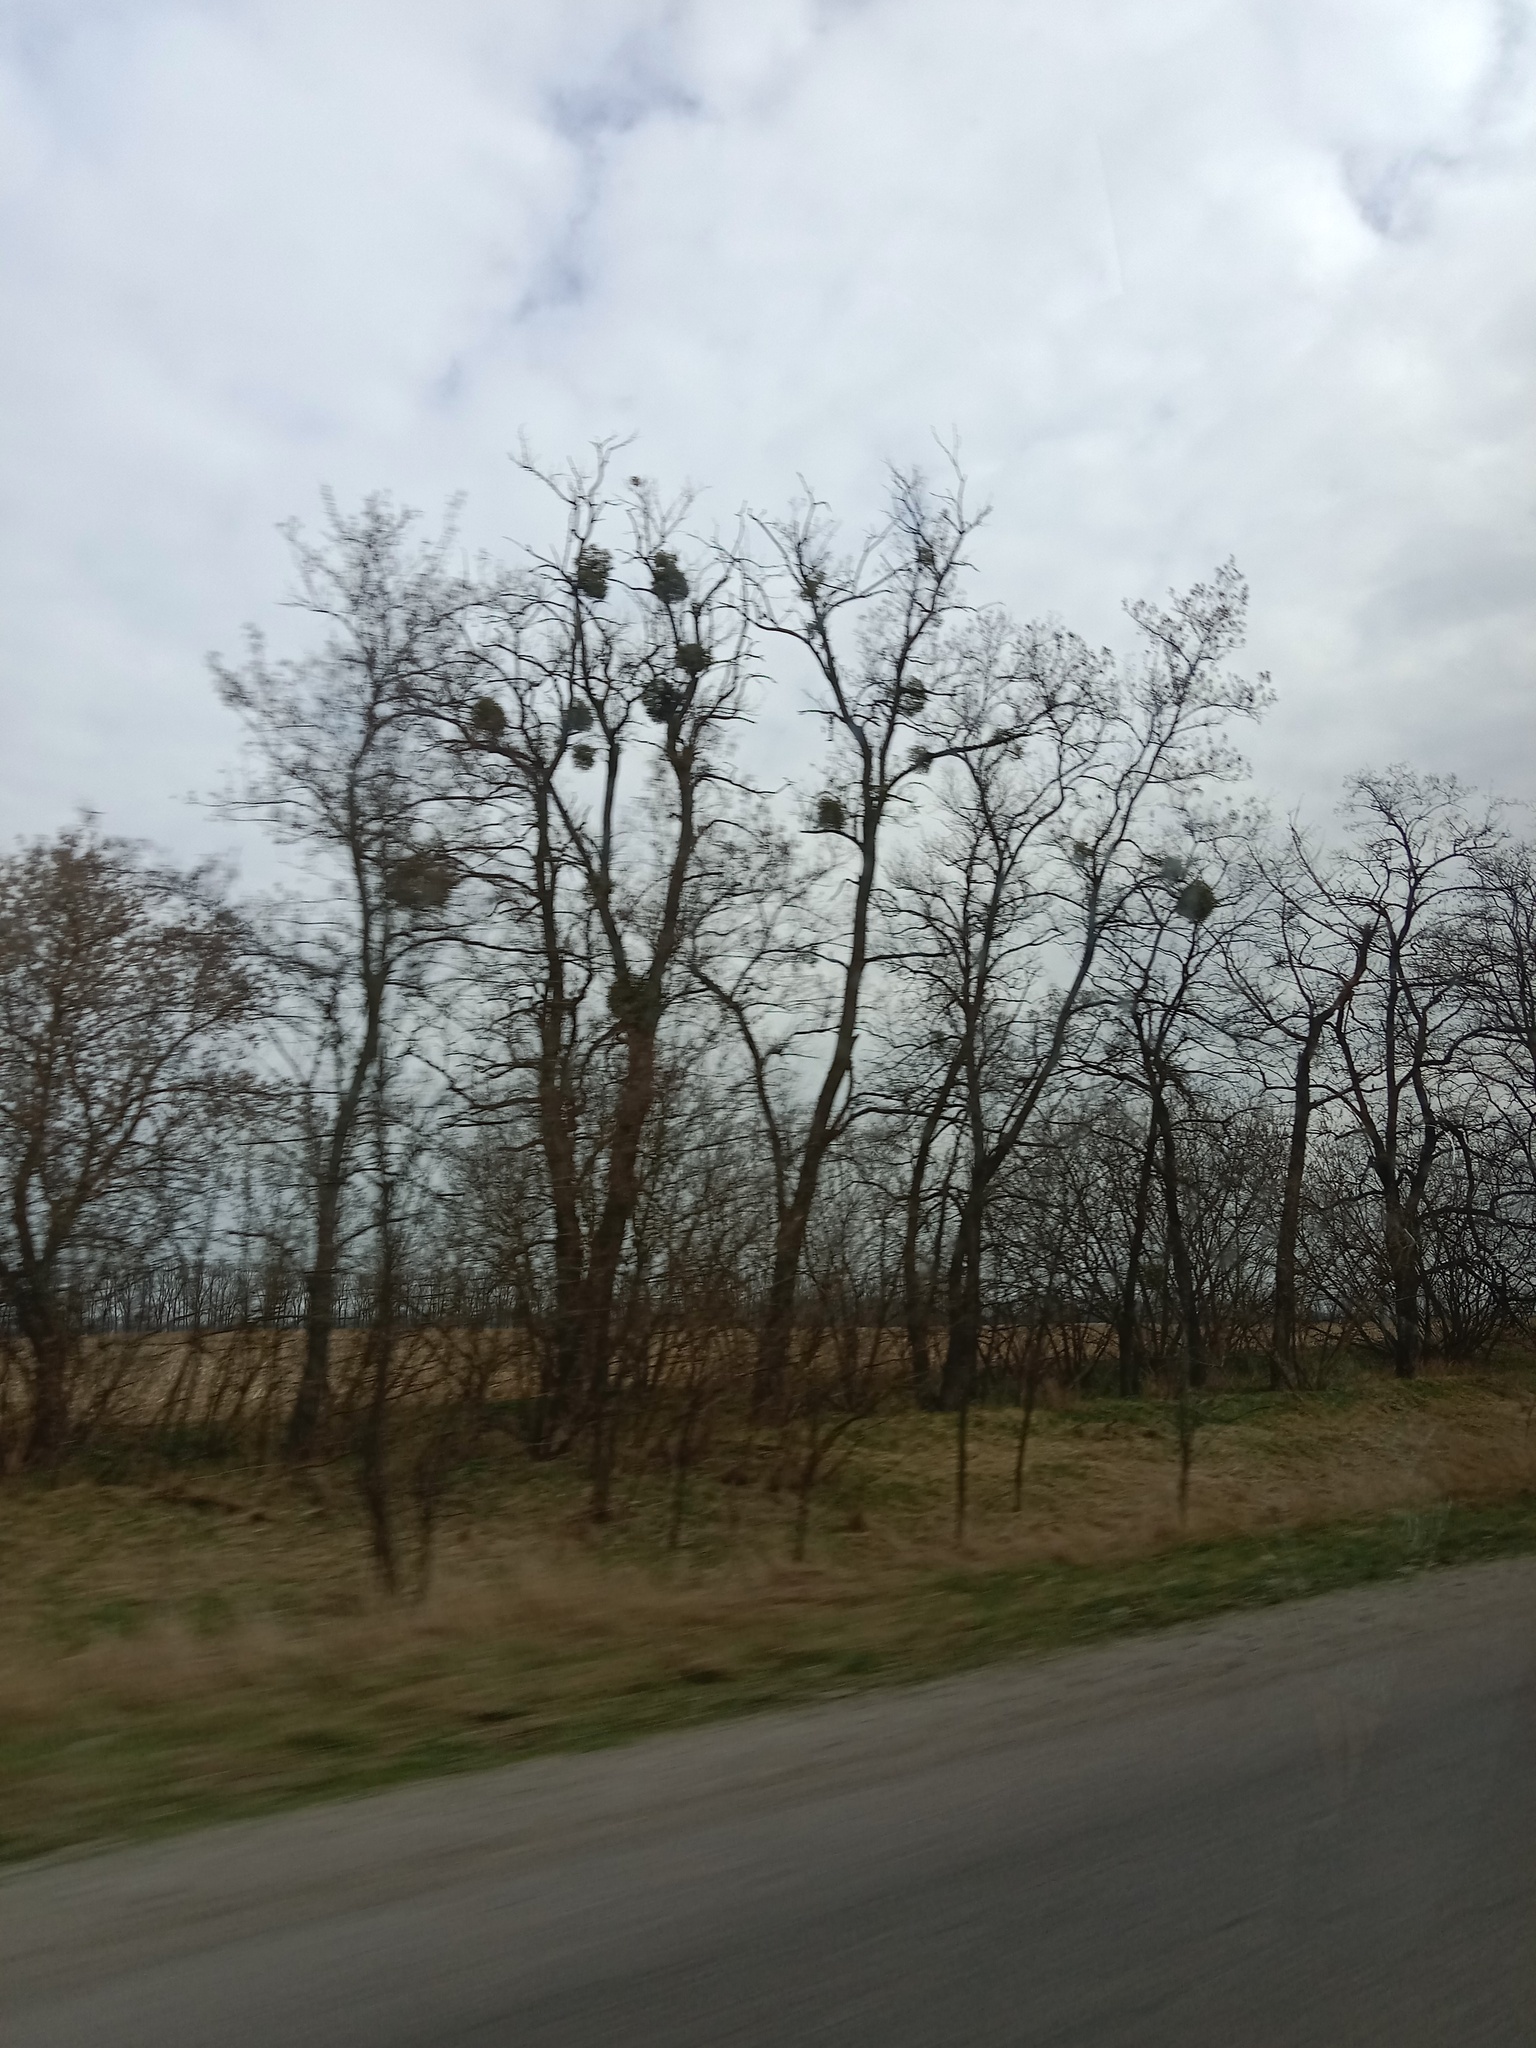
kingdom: Plantae
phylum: Tracheophyta
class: Magnoliopsida
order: Santalales
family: Viscaceae
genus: Viscum
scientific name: Viscum album
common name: Mistletoe
